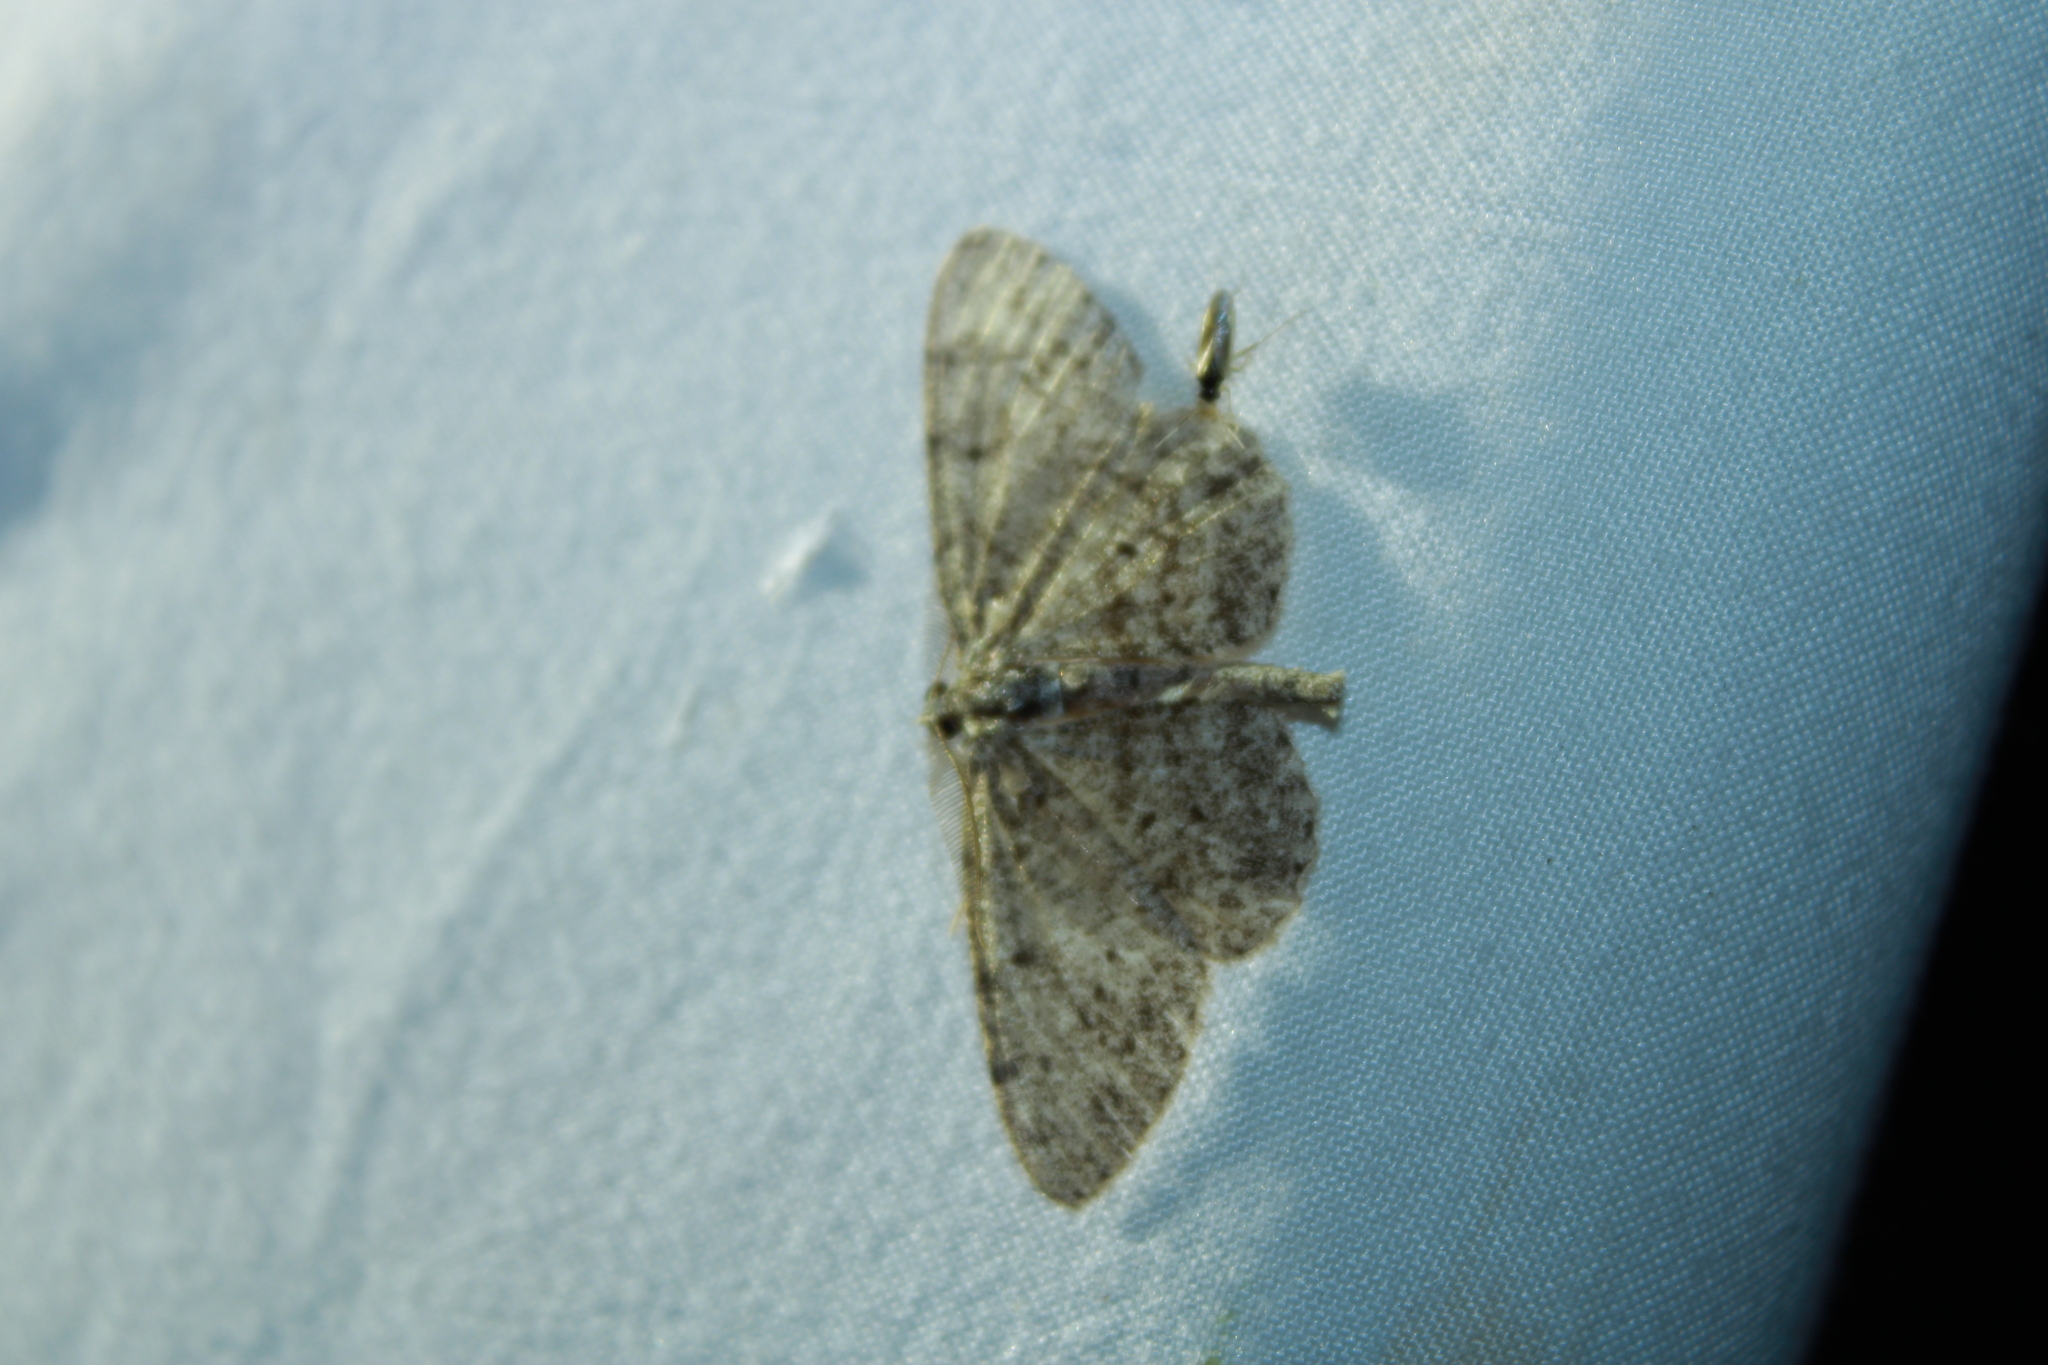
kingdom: Animalia
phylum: Arthropoda
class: Insecta
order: Lepidoptera
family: Geometridae
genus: Protoboarmia
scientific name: Protoboarmia porcelaria
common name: Porcelain gray
